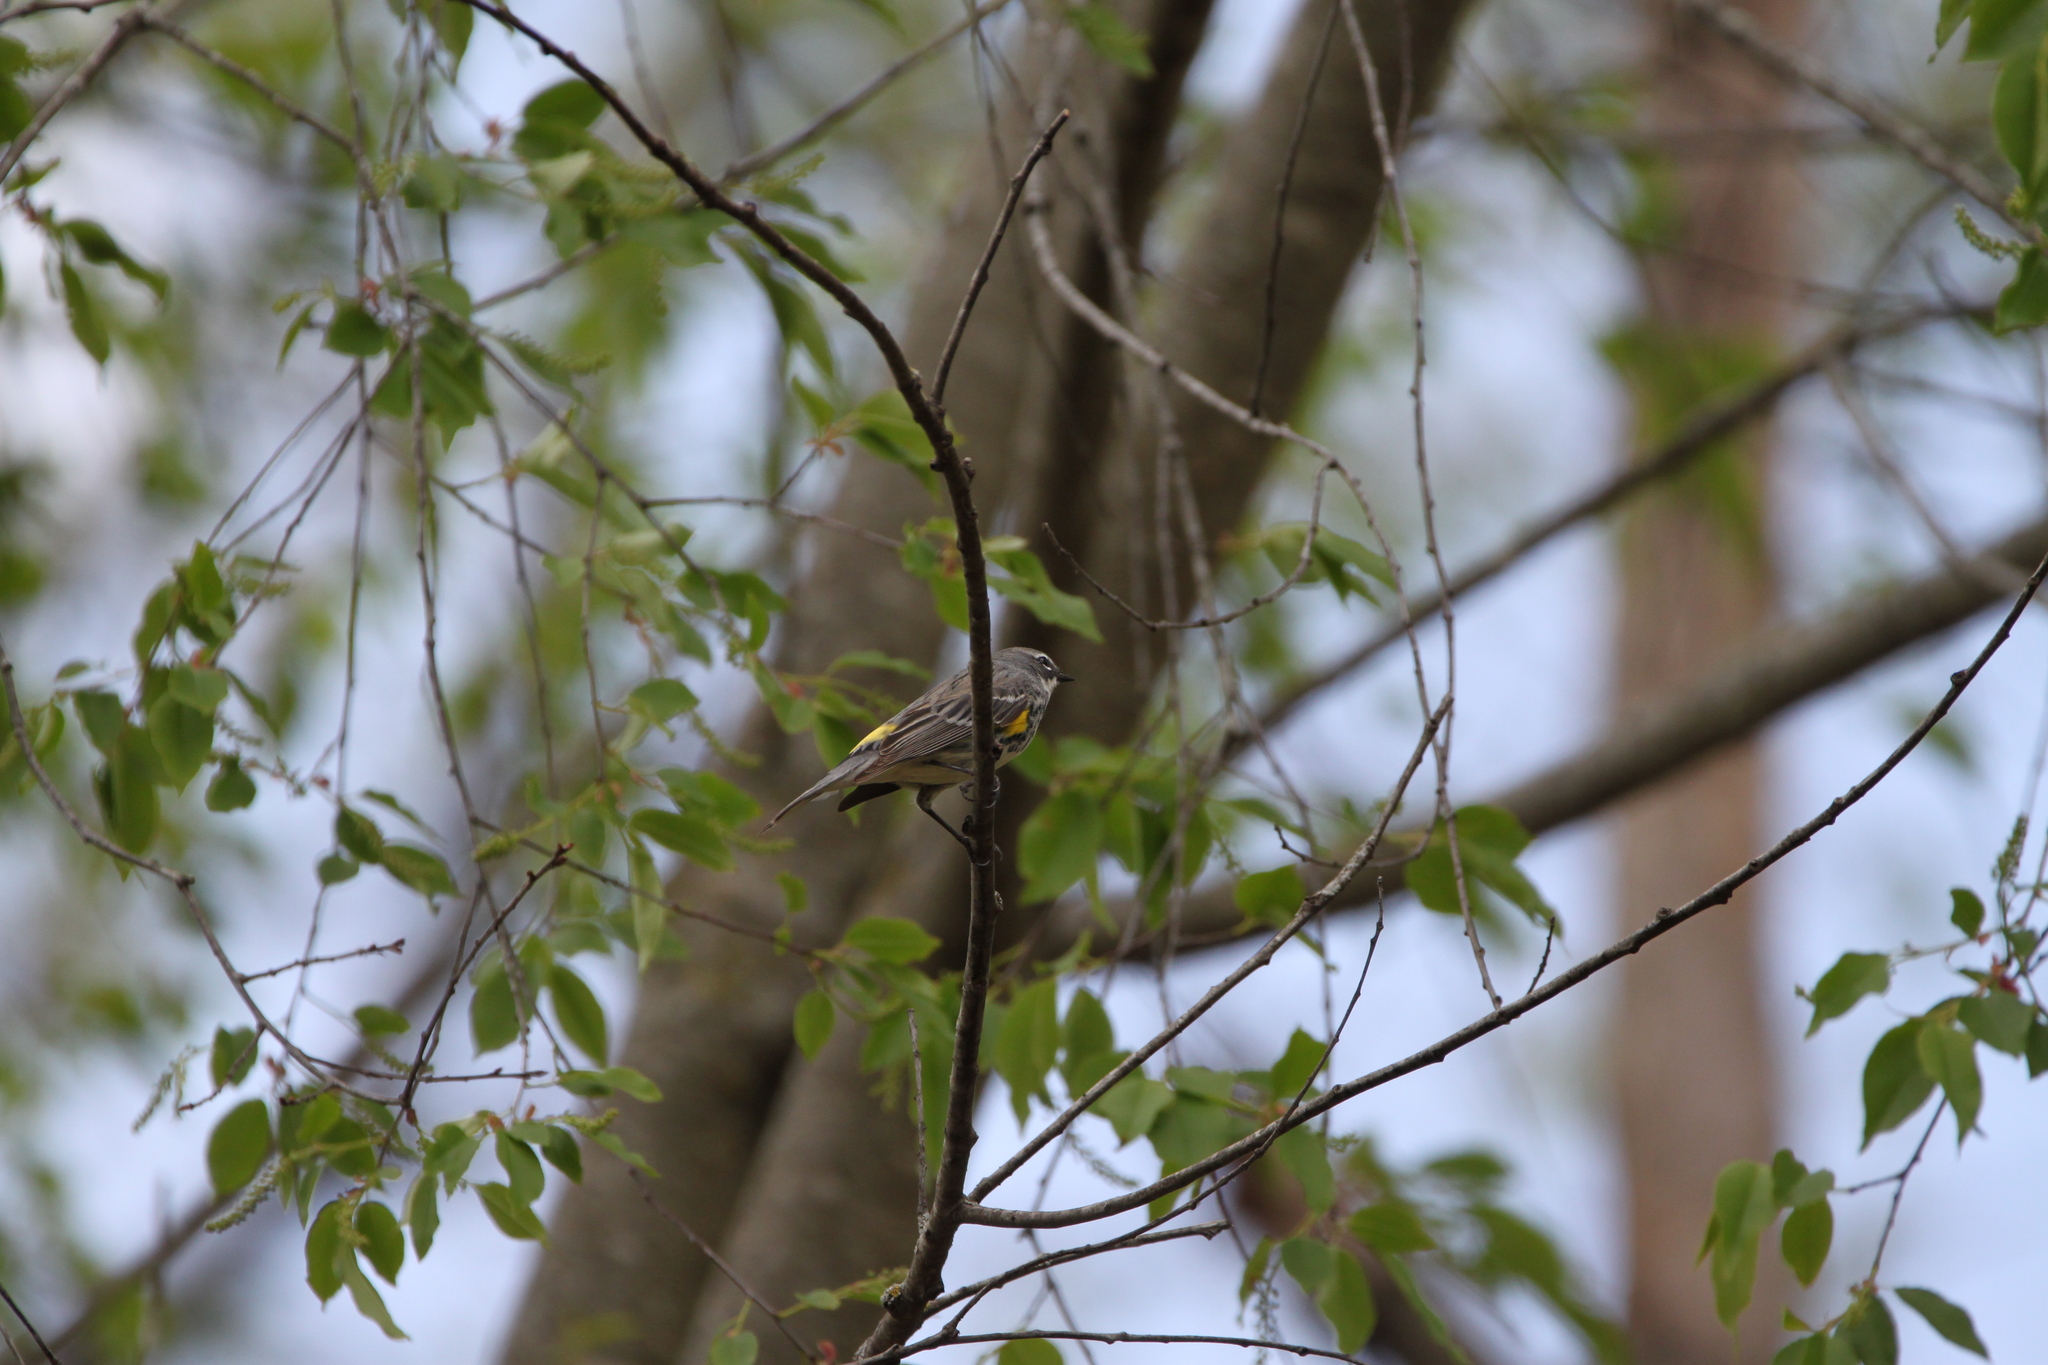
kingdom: Animalia
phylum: Chordata
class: Aves
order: Passeriformes
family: Parulidae
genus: Setophaga
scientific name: Setophaga coronata
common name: Myrtle warbler
